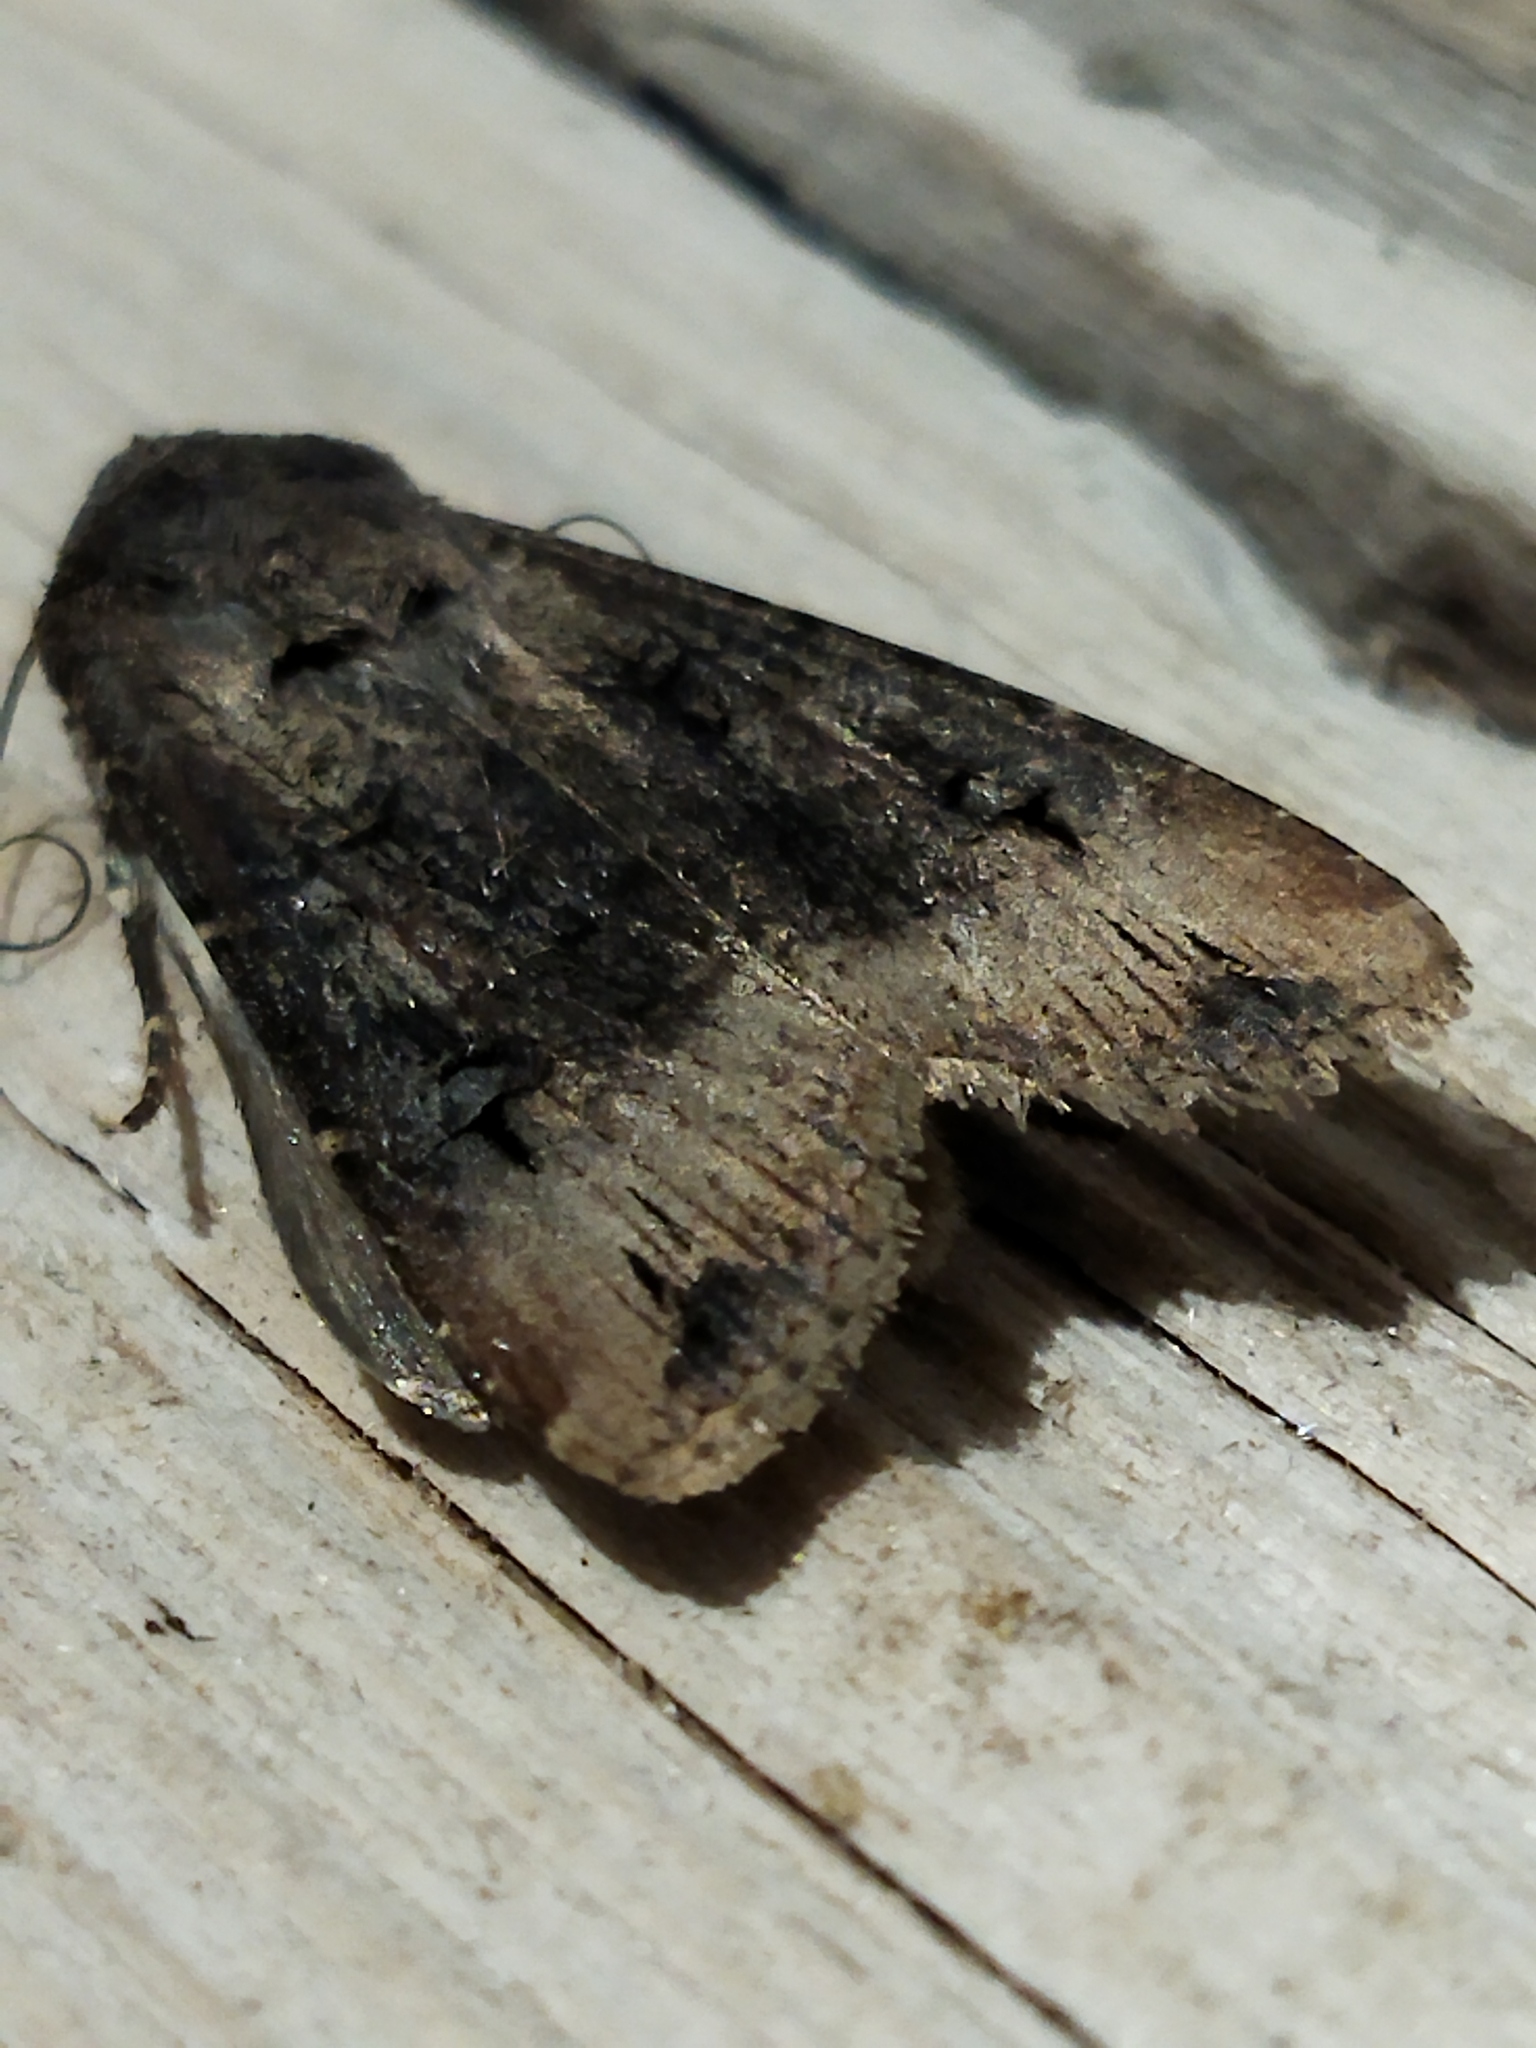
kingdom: Animalia
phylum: Arthropoda
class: Insecta
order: Lepidoptera
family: Noctuidae
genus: Agrotis
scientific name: Agrotis ipsilon
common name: Dark sword-grass
